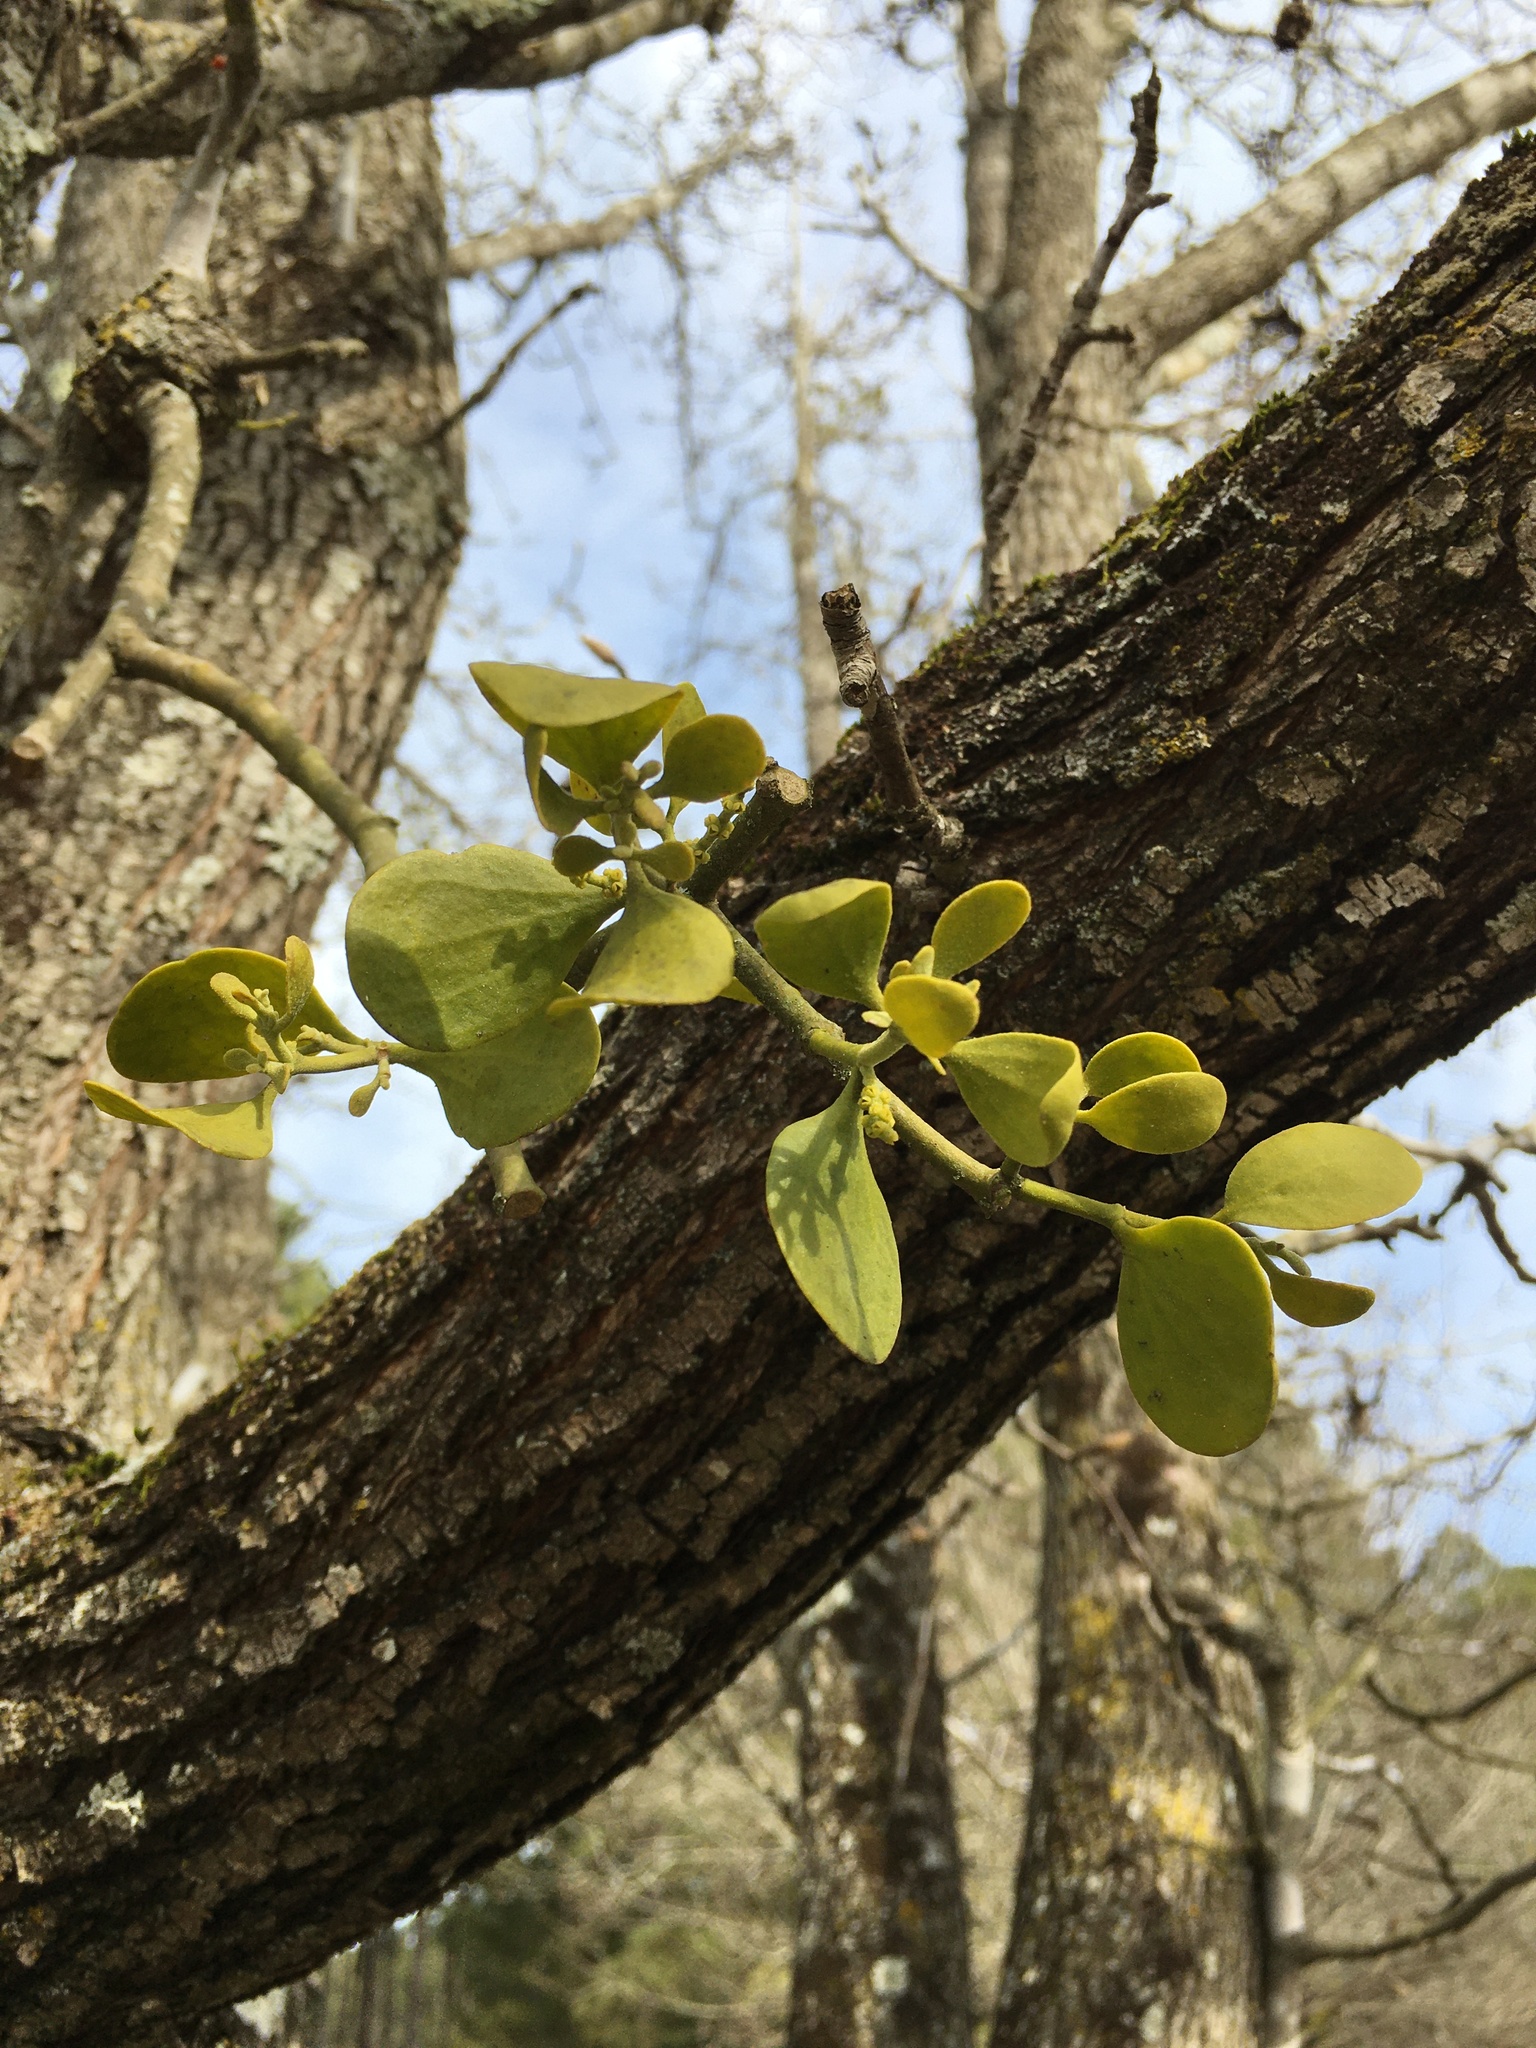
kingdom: Plantae
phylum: Tracheophyta
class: Magnoliopsida
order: Santalales
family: Viscaceae
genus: Phoradendron
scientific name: Phoradendron leucarpum
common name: Pacific mistletoe
